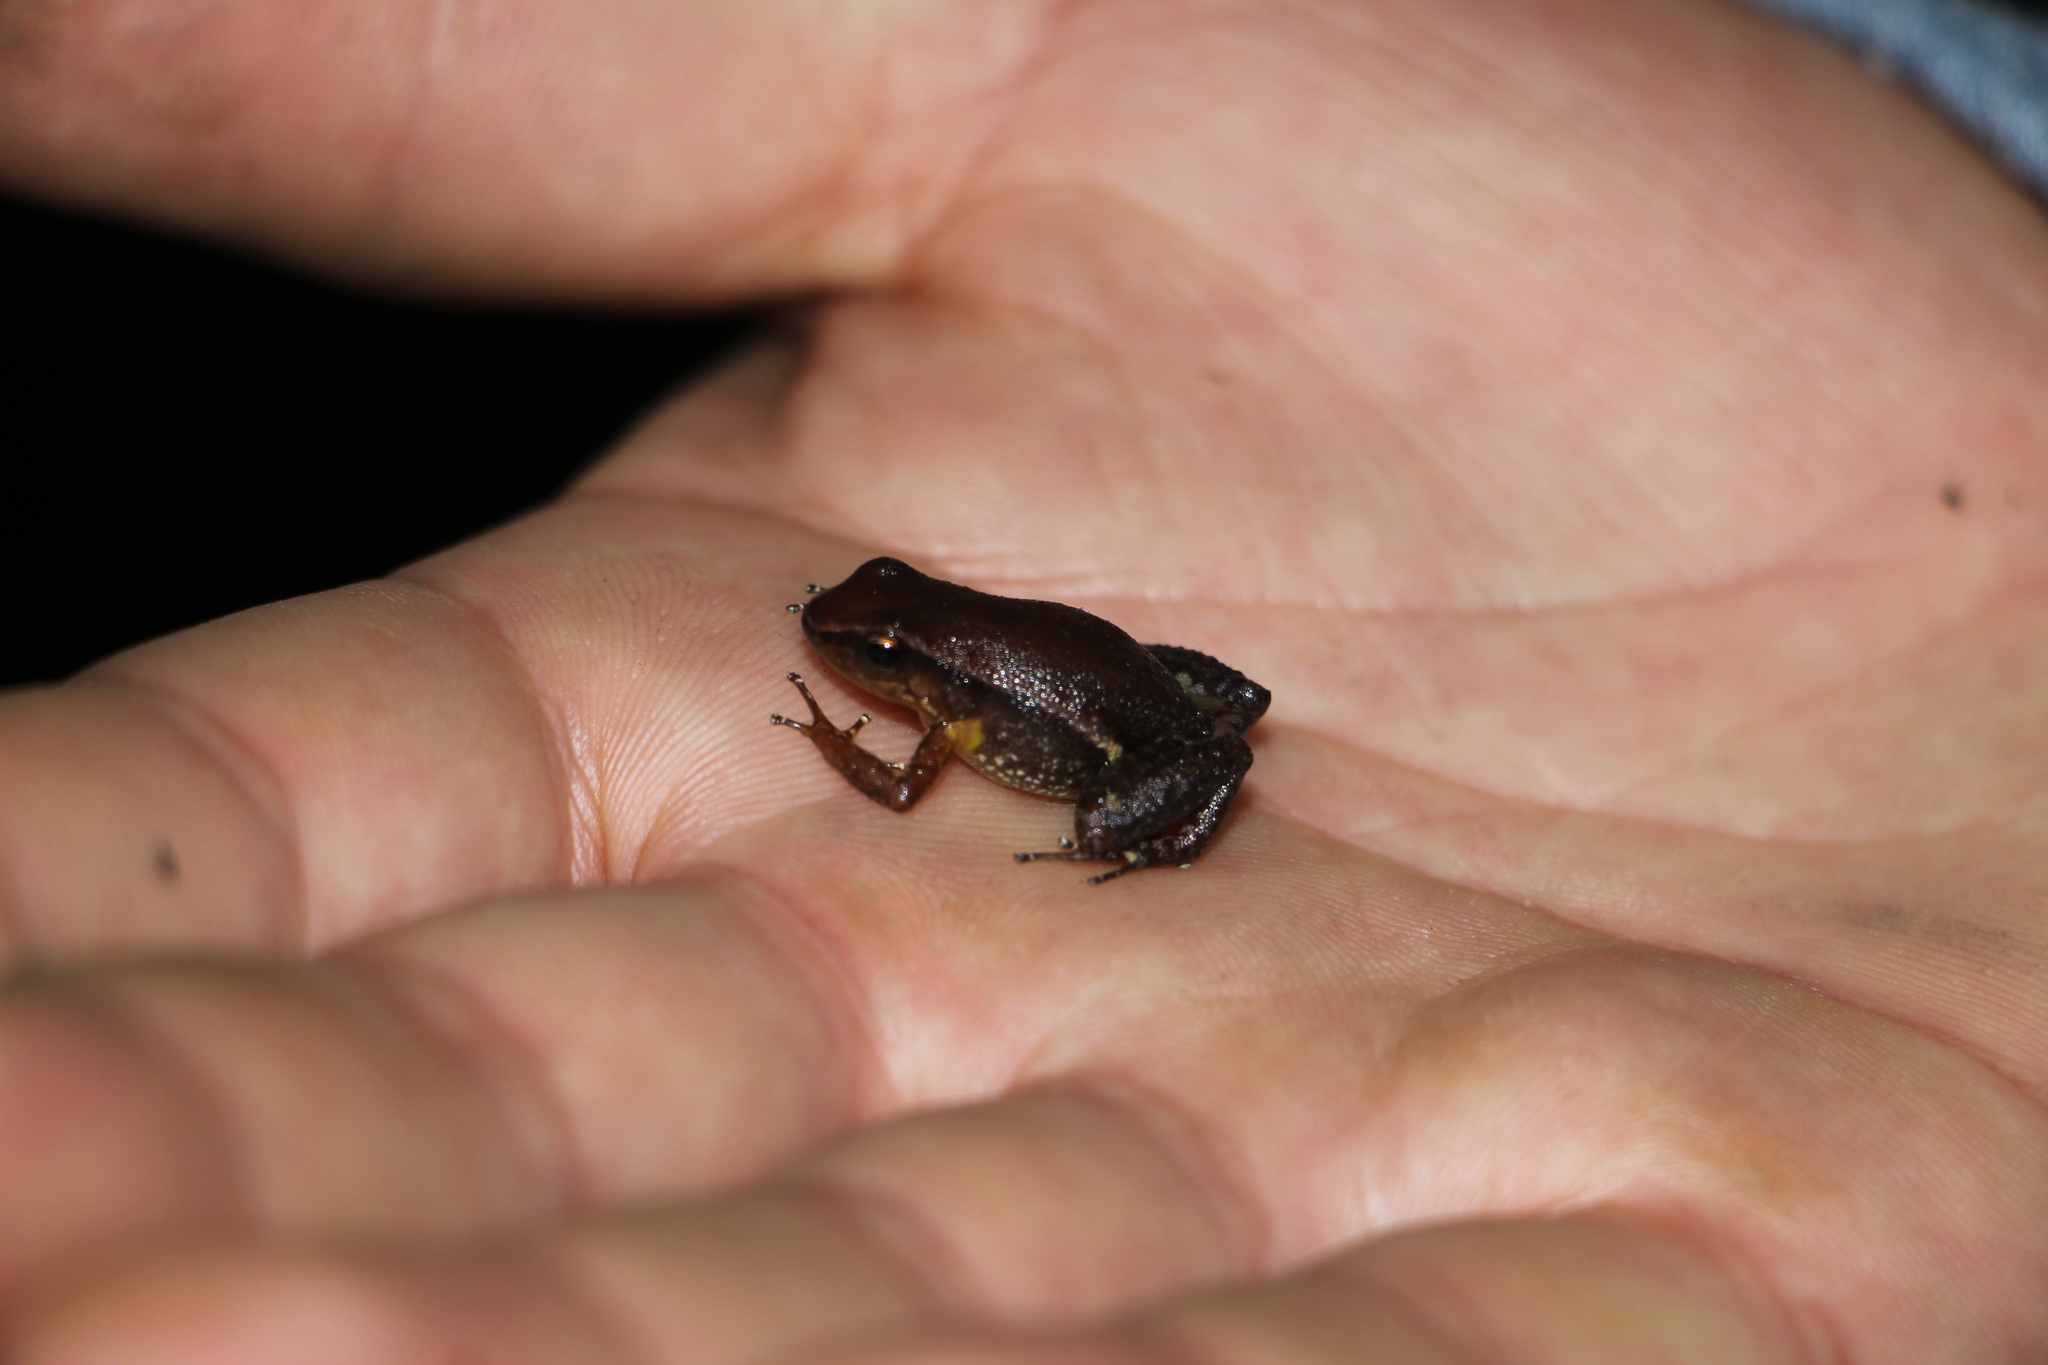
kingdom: Animalia
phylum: Chordata
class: Amphibia
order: Anura
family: Dendrobatidae
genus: Hyloxalus
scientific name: Hyloxalus sanctamariensis
